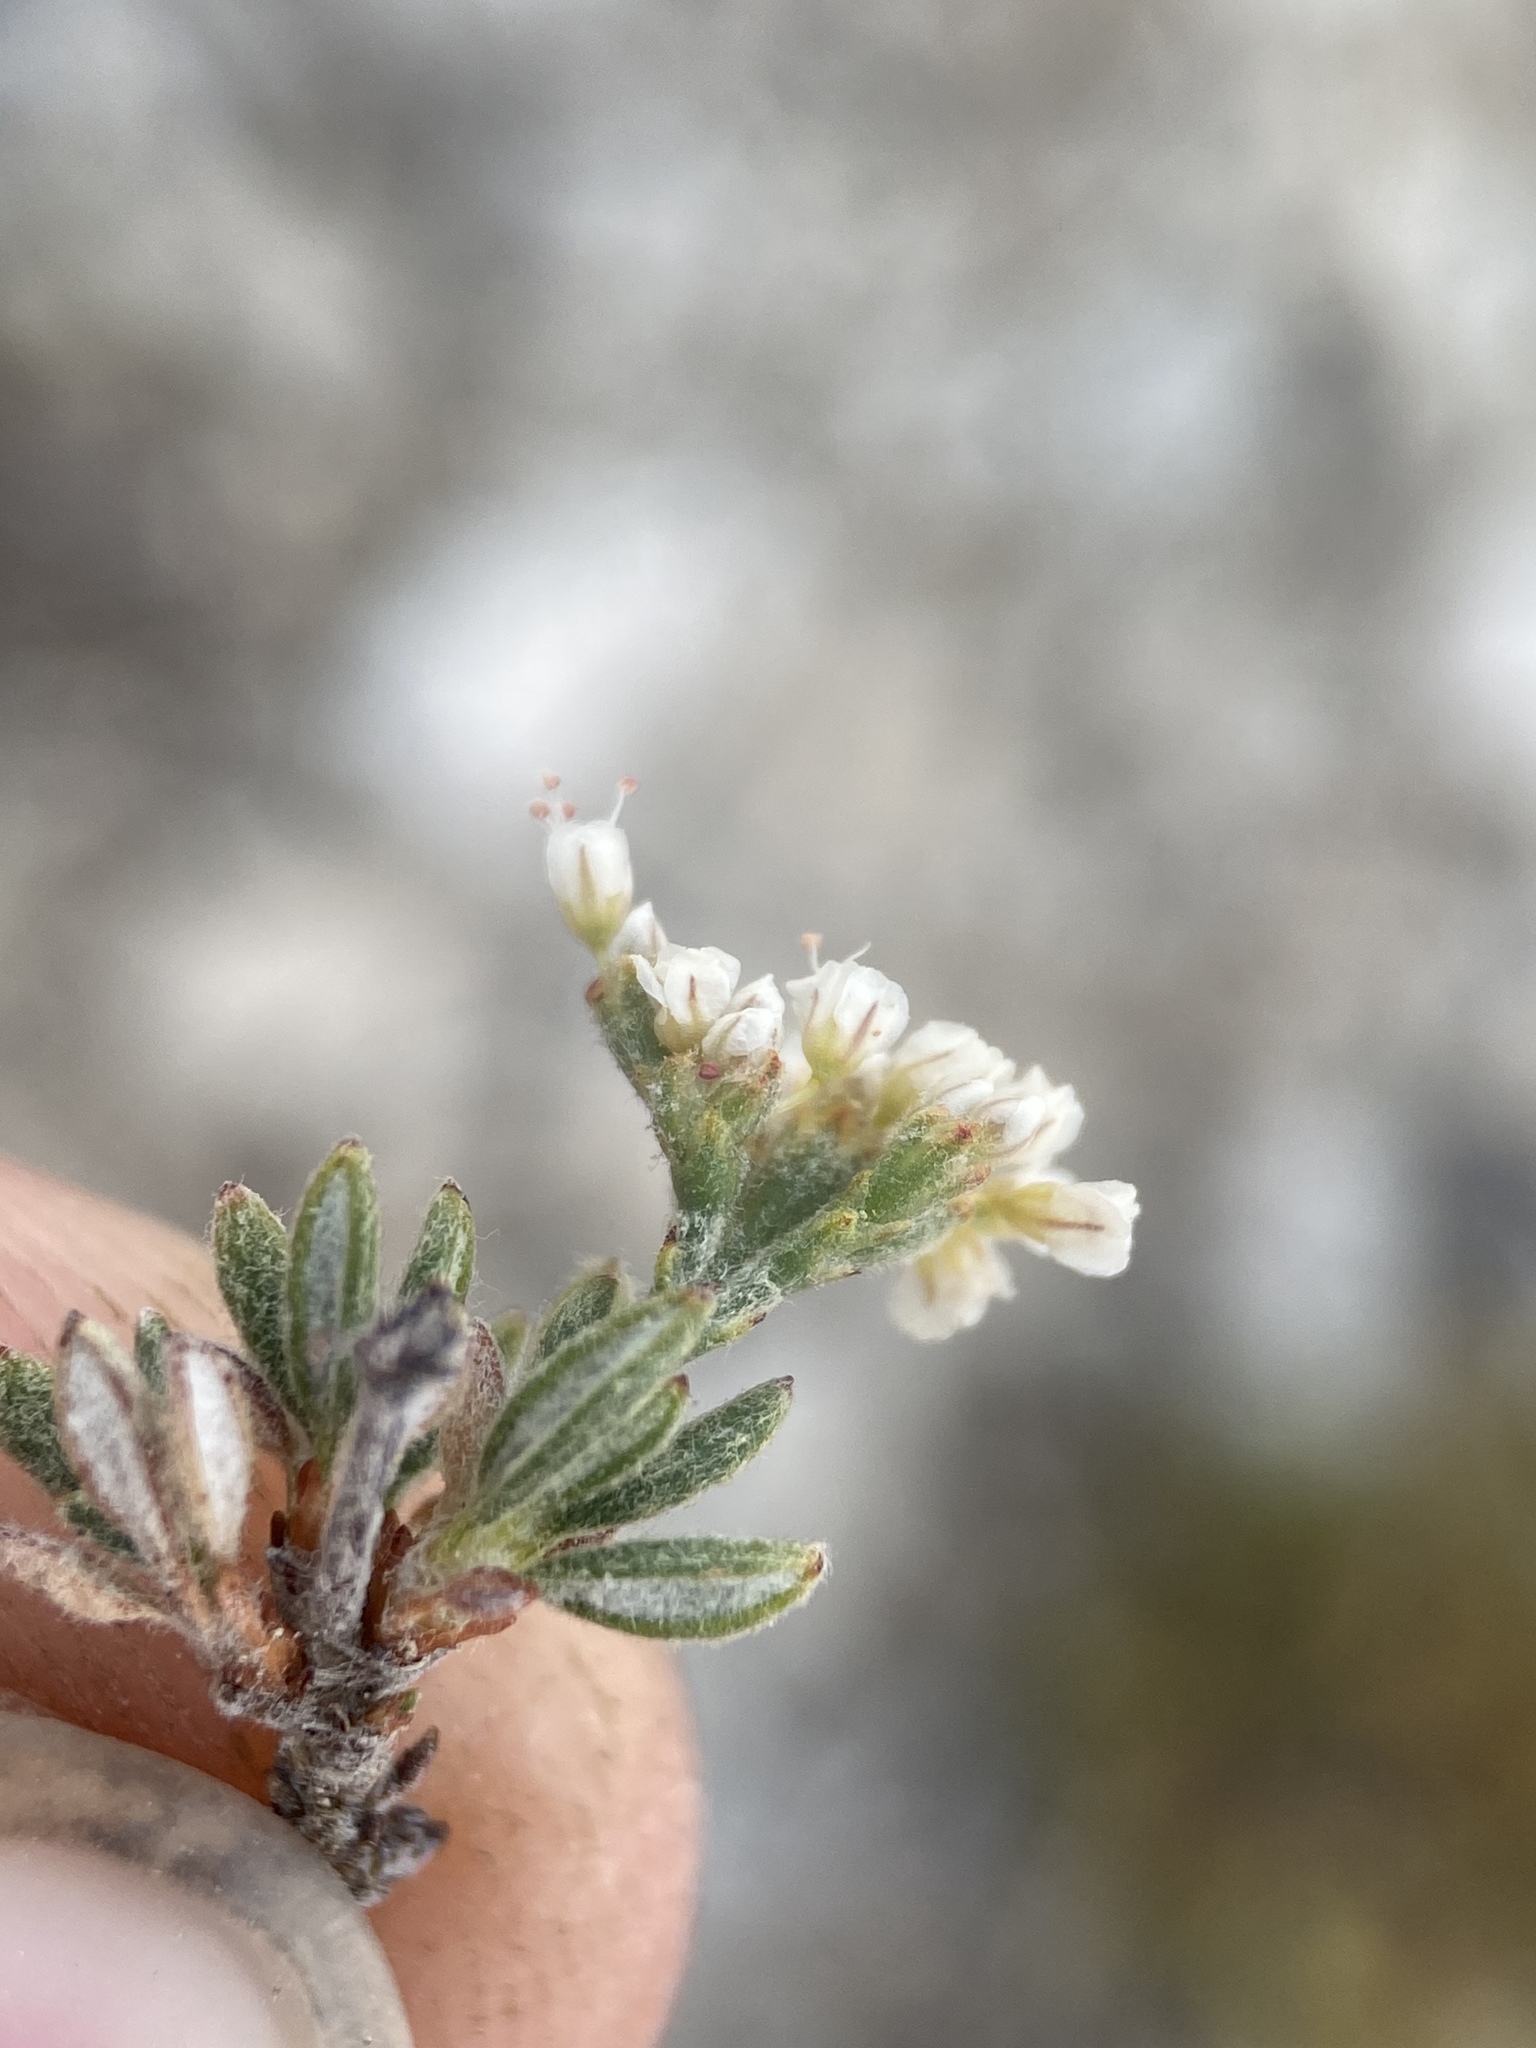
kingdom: Plantae
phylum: Tracheophyta
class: Magnoliopsida
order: Caryophyllales
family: Polygonaceae
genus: Eriogonum
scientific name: Eriogonum microtheca
